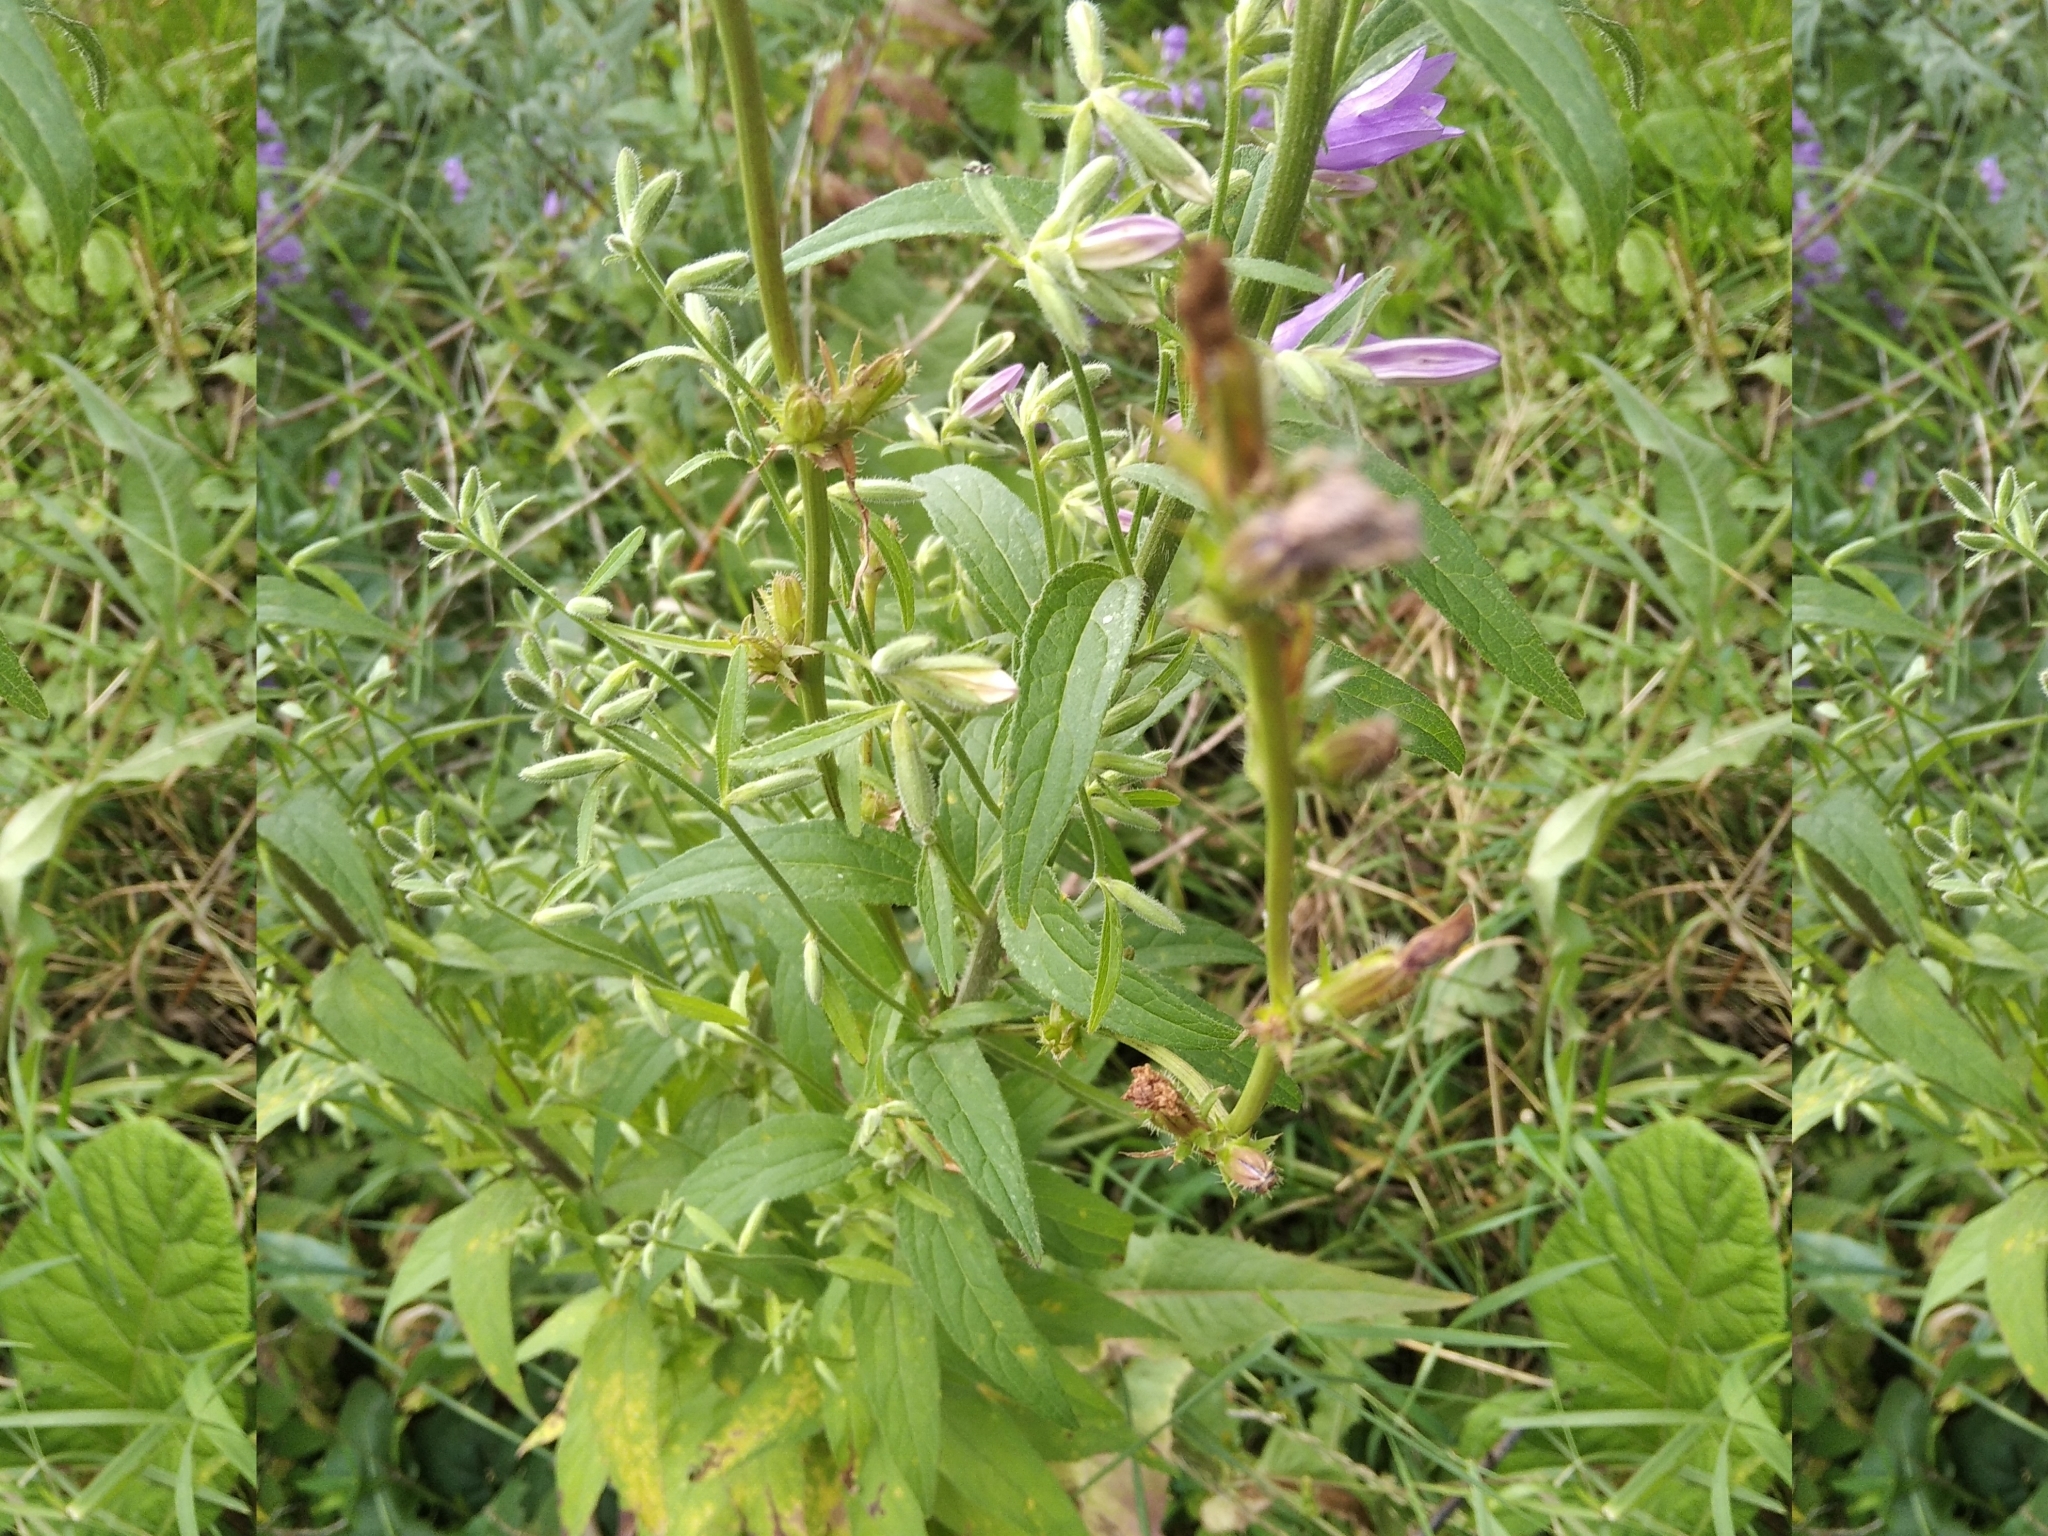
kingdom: Plantae
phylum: Tracheophyta
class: Magnoliopsida
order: Asterales
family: Campanulaceae
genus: Campanula
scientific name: Campanula rapunculoides
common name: Creeping bellflower
